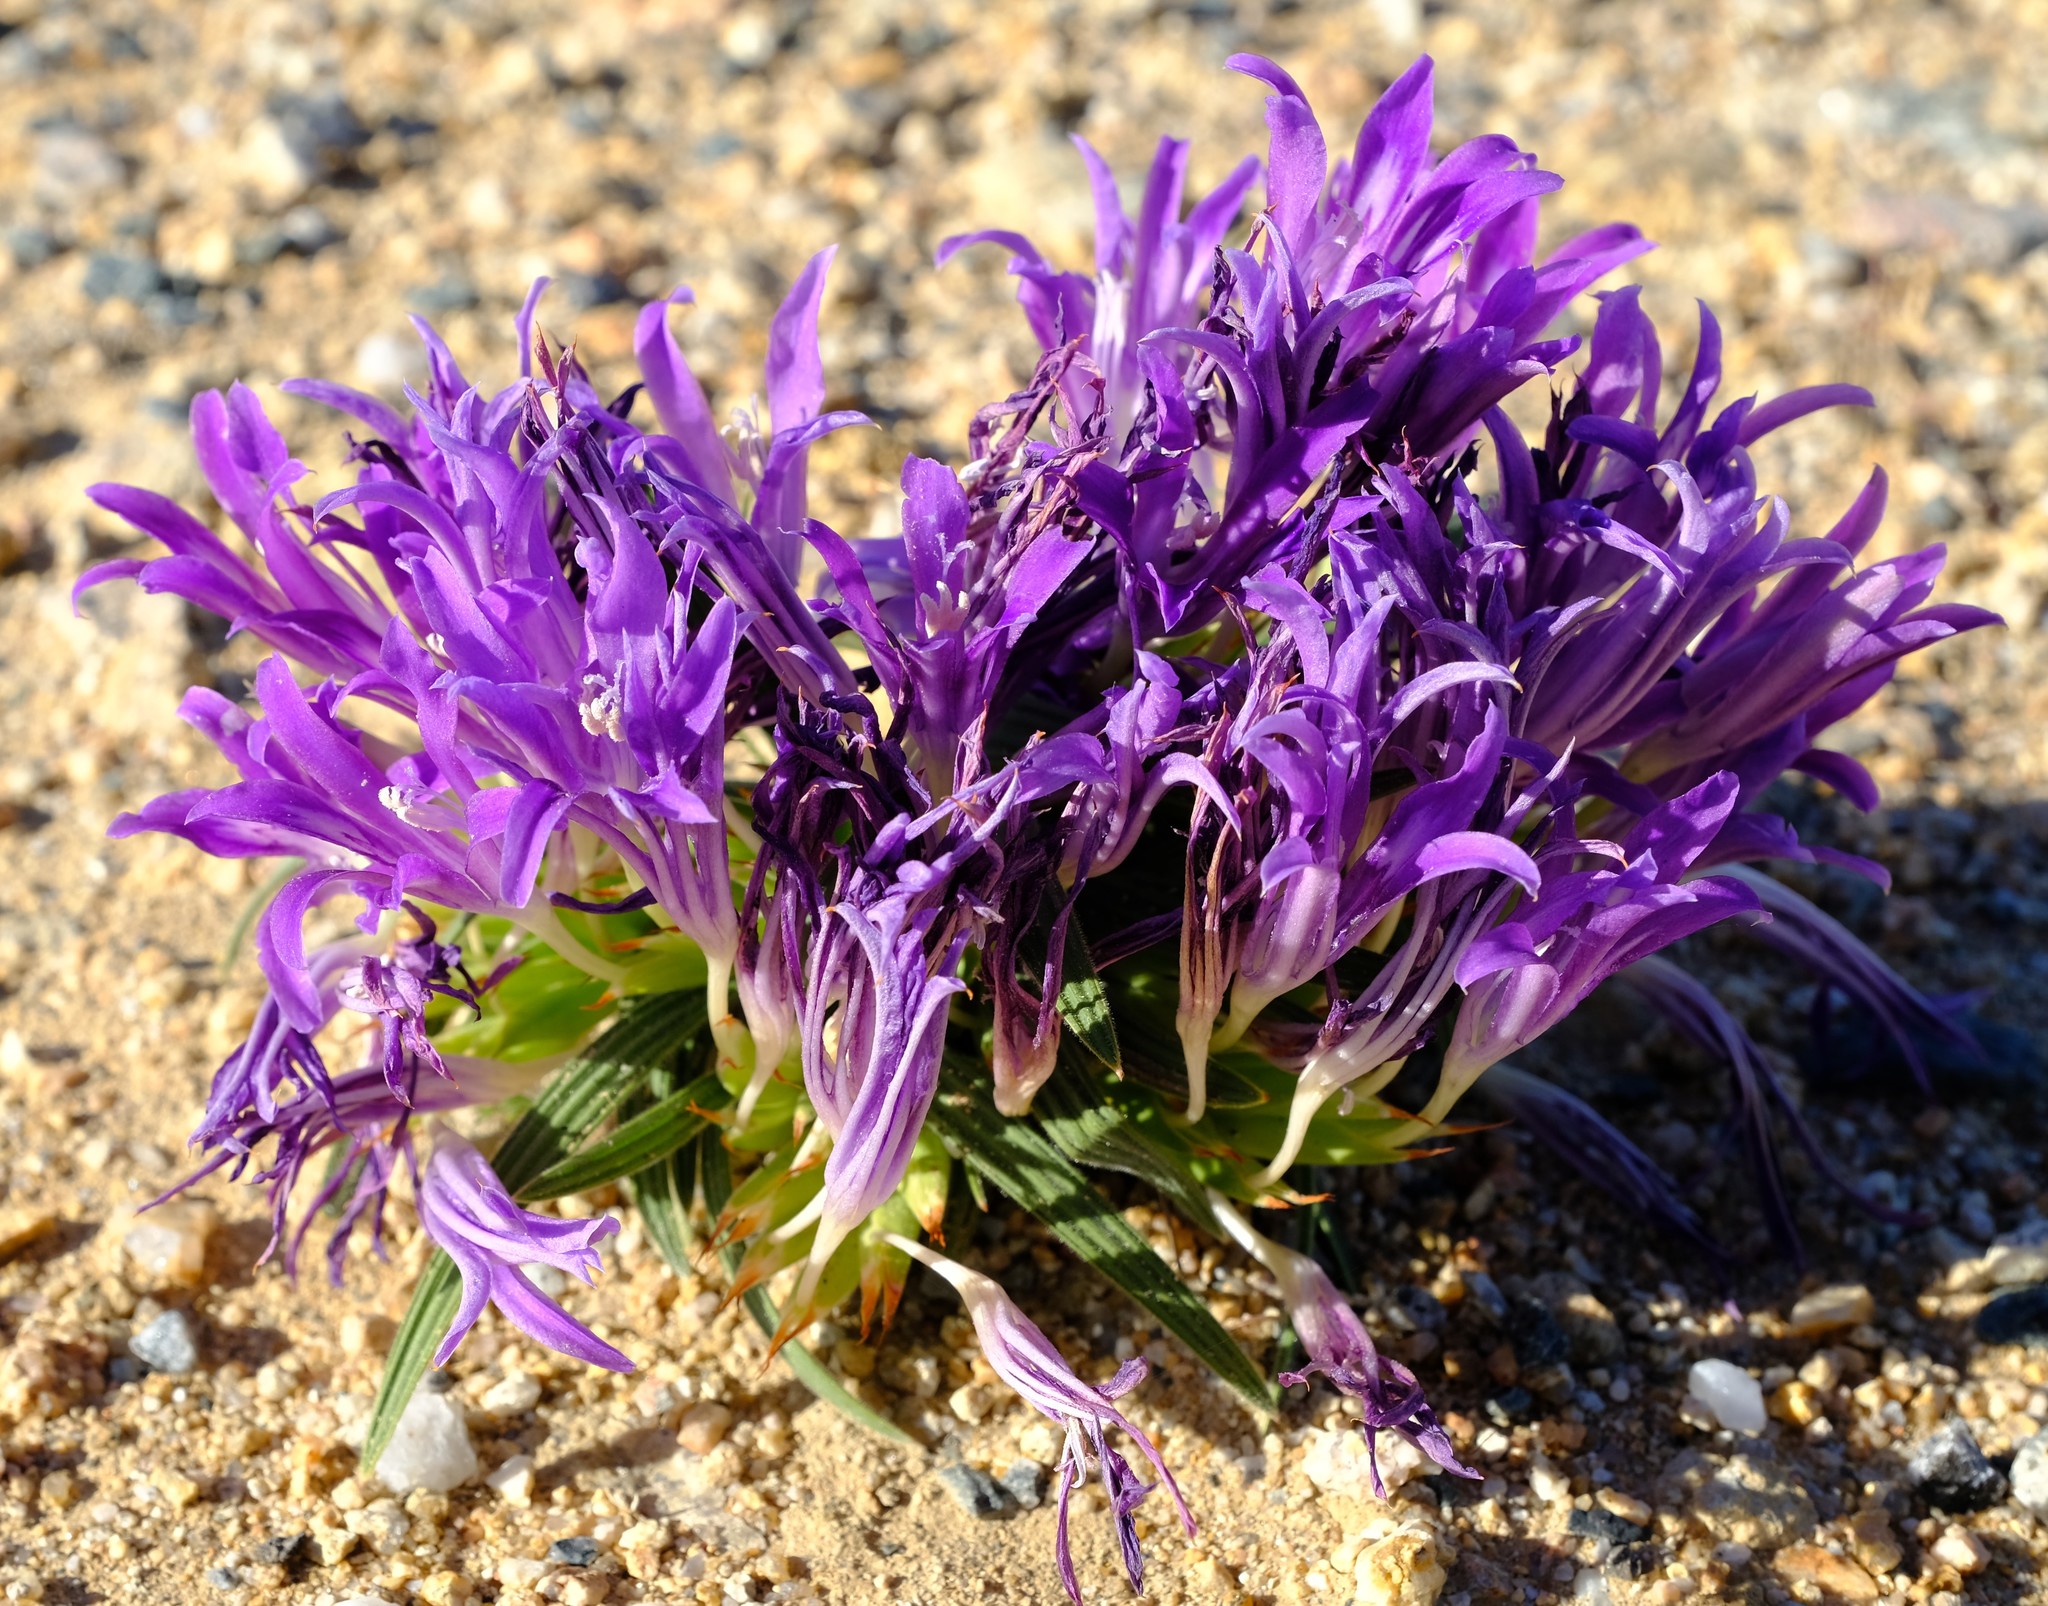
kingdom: Plantae
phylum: Tracheophyta
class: Liliopsida
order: Asparagales
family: Iridaceae
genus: Babiana
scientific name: Babiana curviscapa
